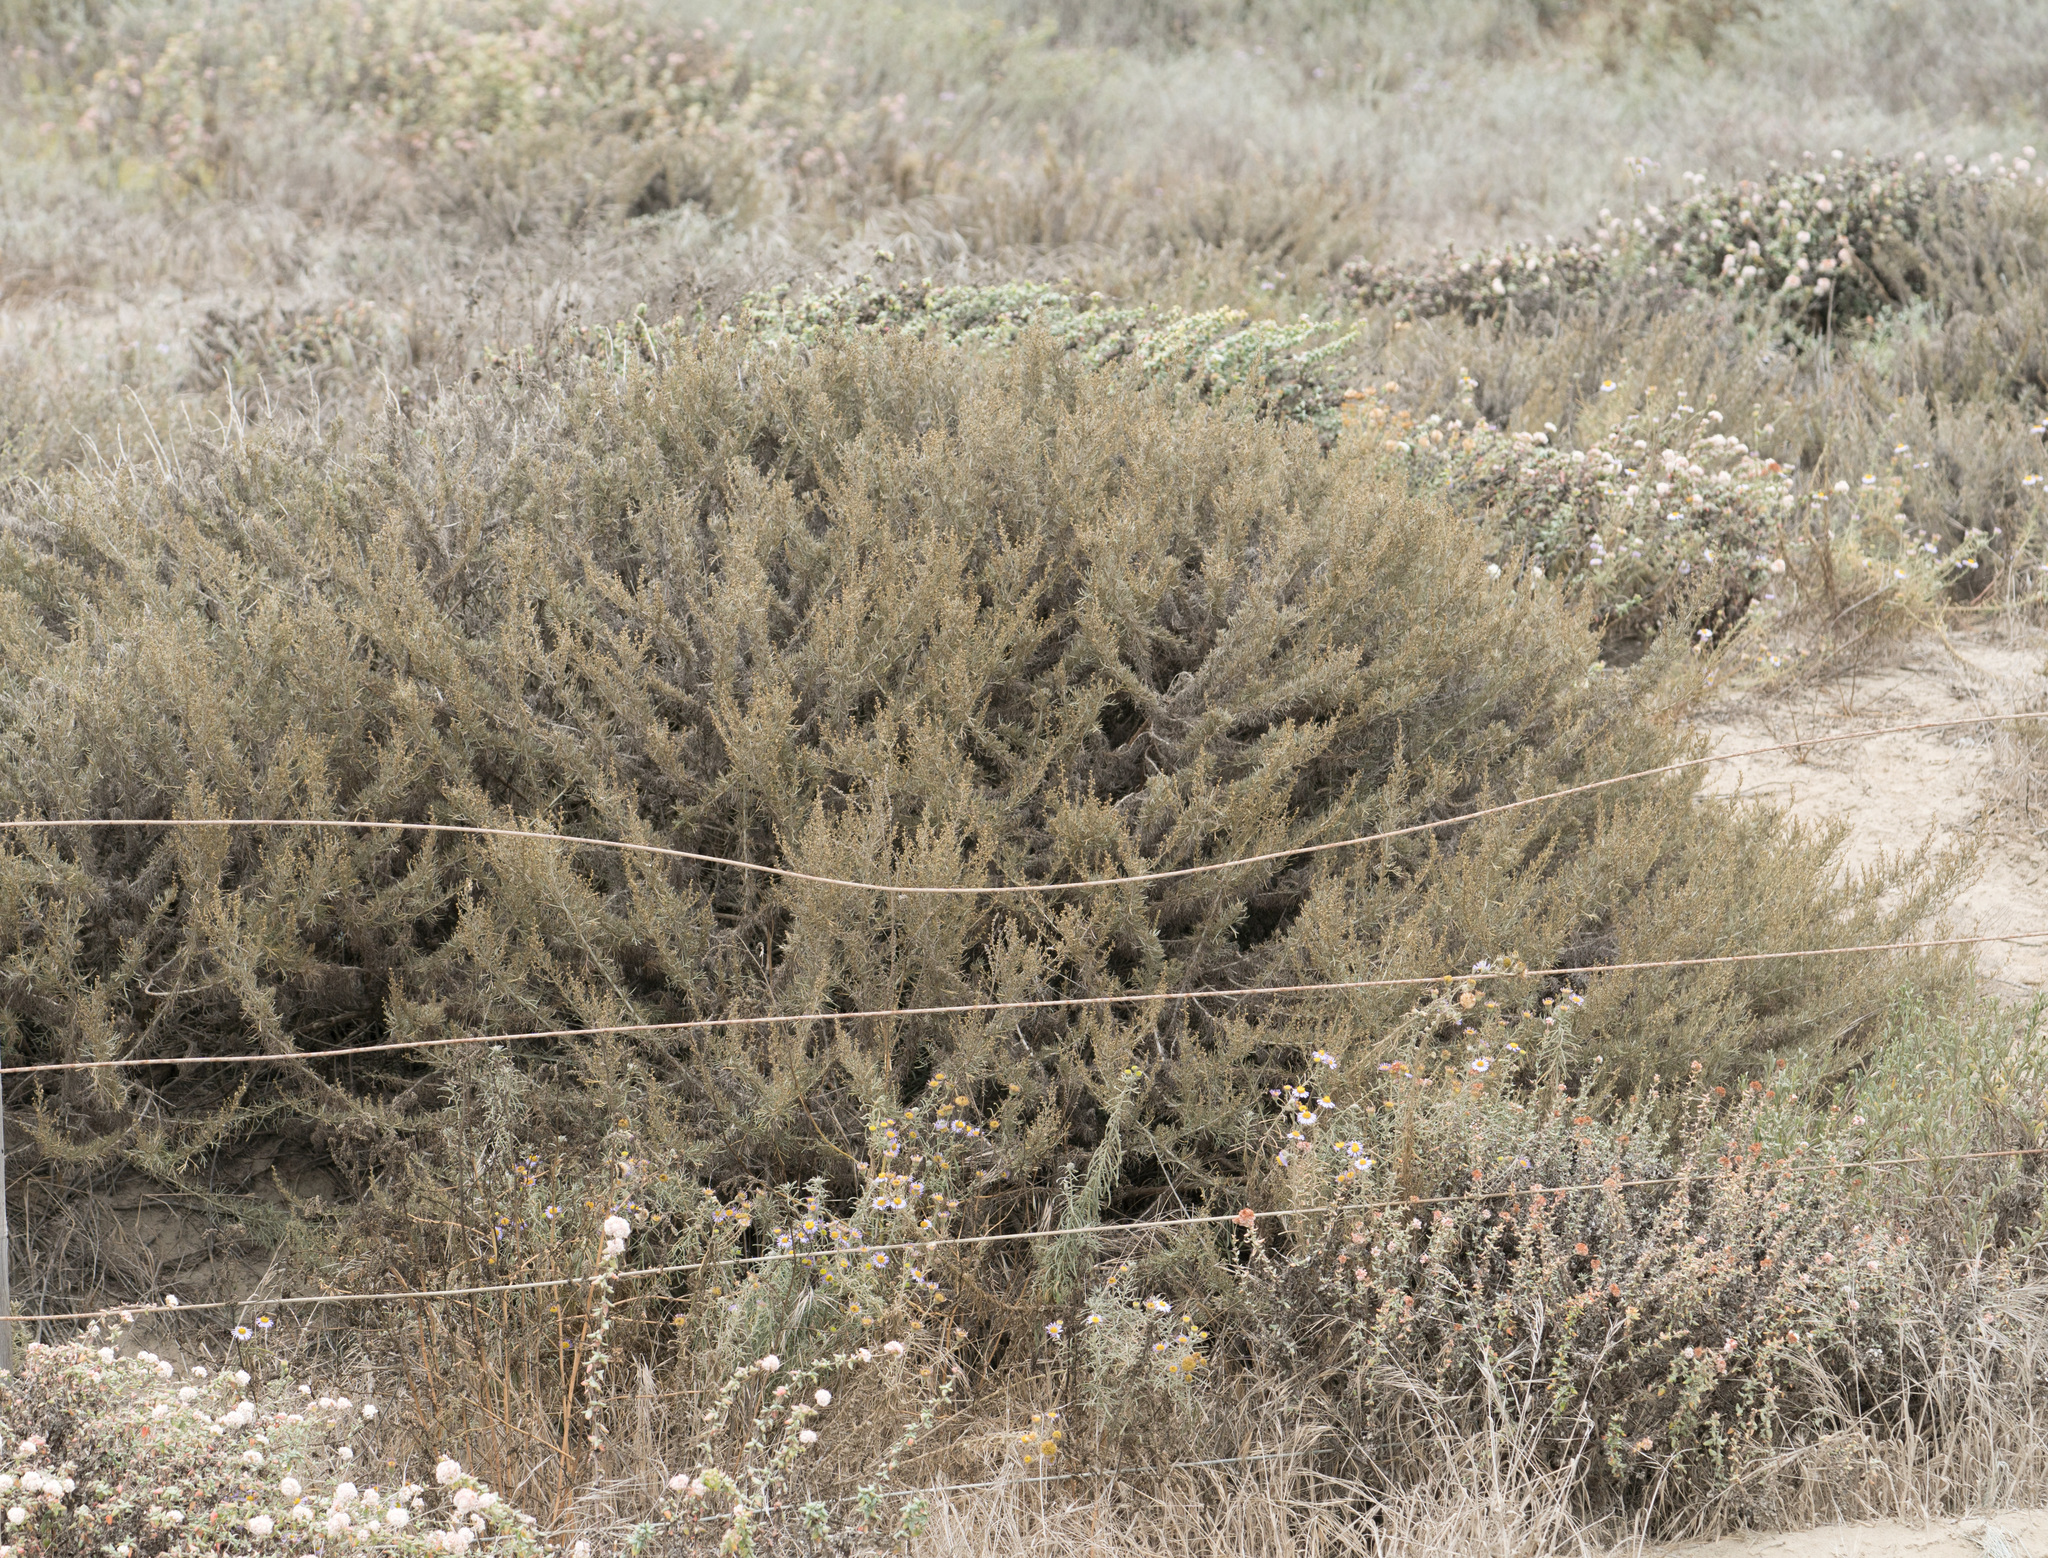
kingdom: Plantae
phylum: Tracheophyta
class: Magnoliopsida
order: Asterales
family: Asteraceae
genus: Artemisia
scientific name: Artemisia californica
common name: California sagebrush
